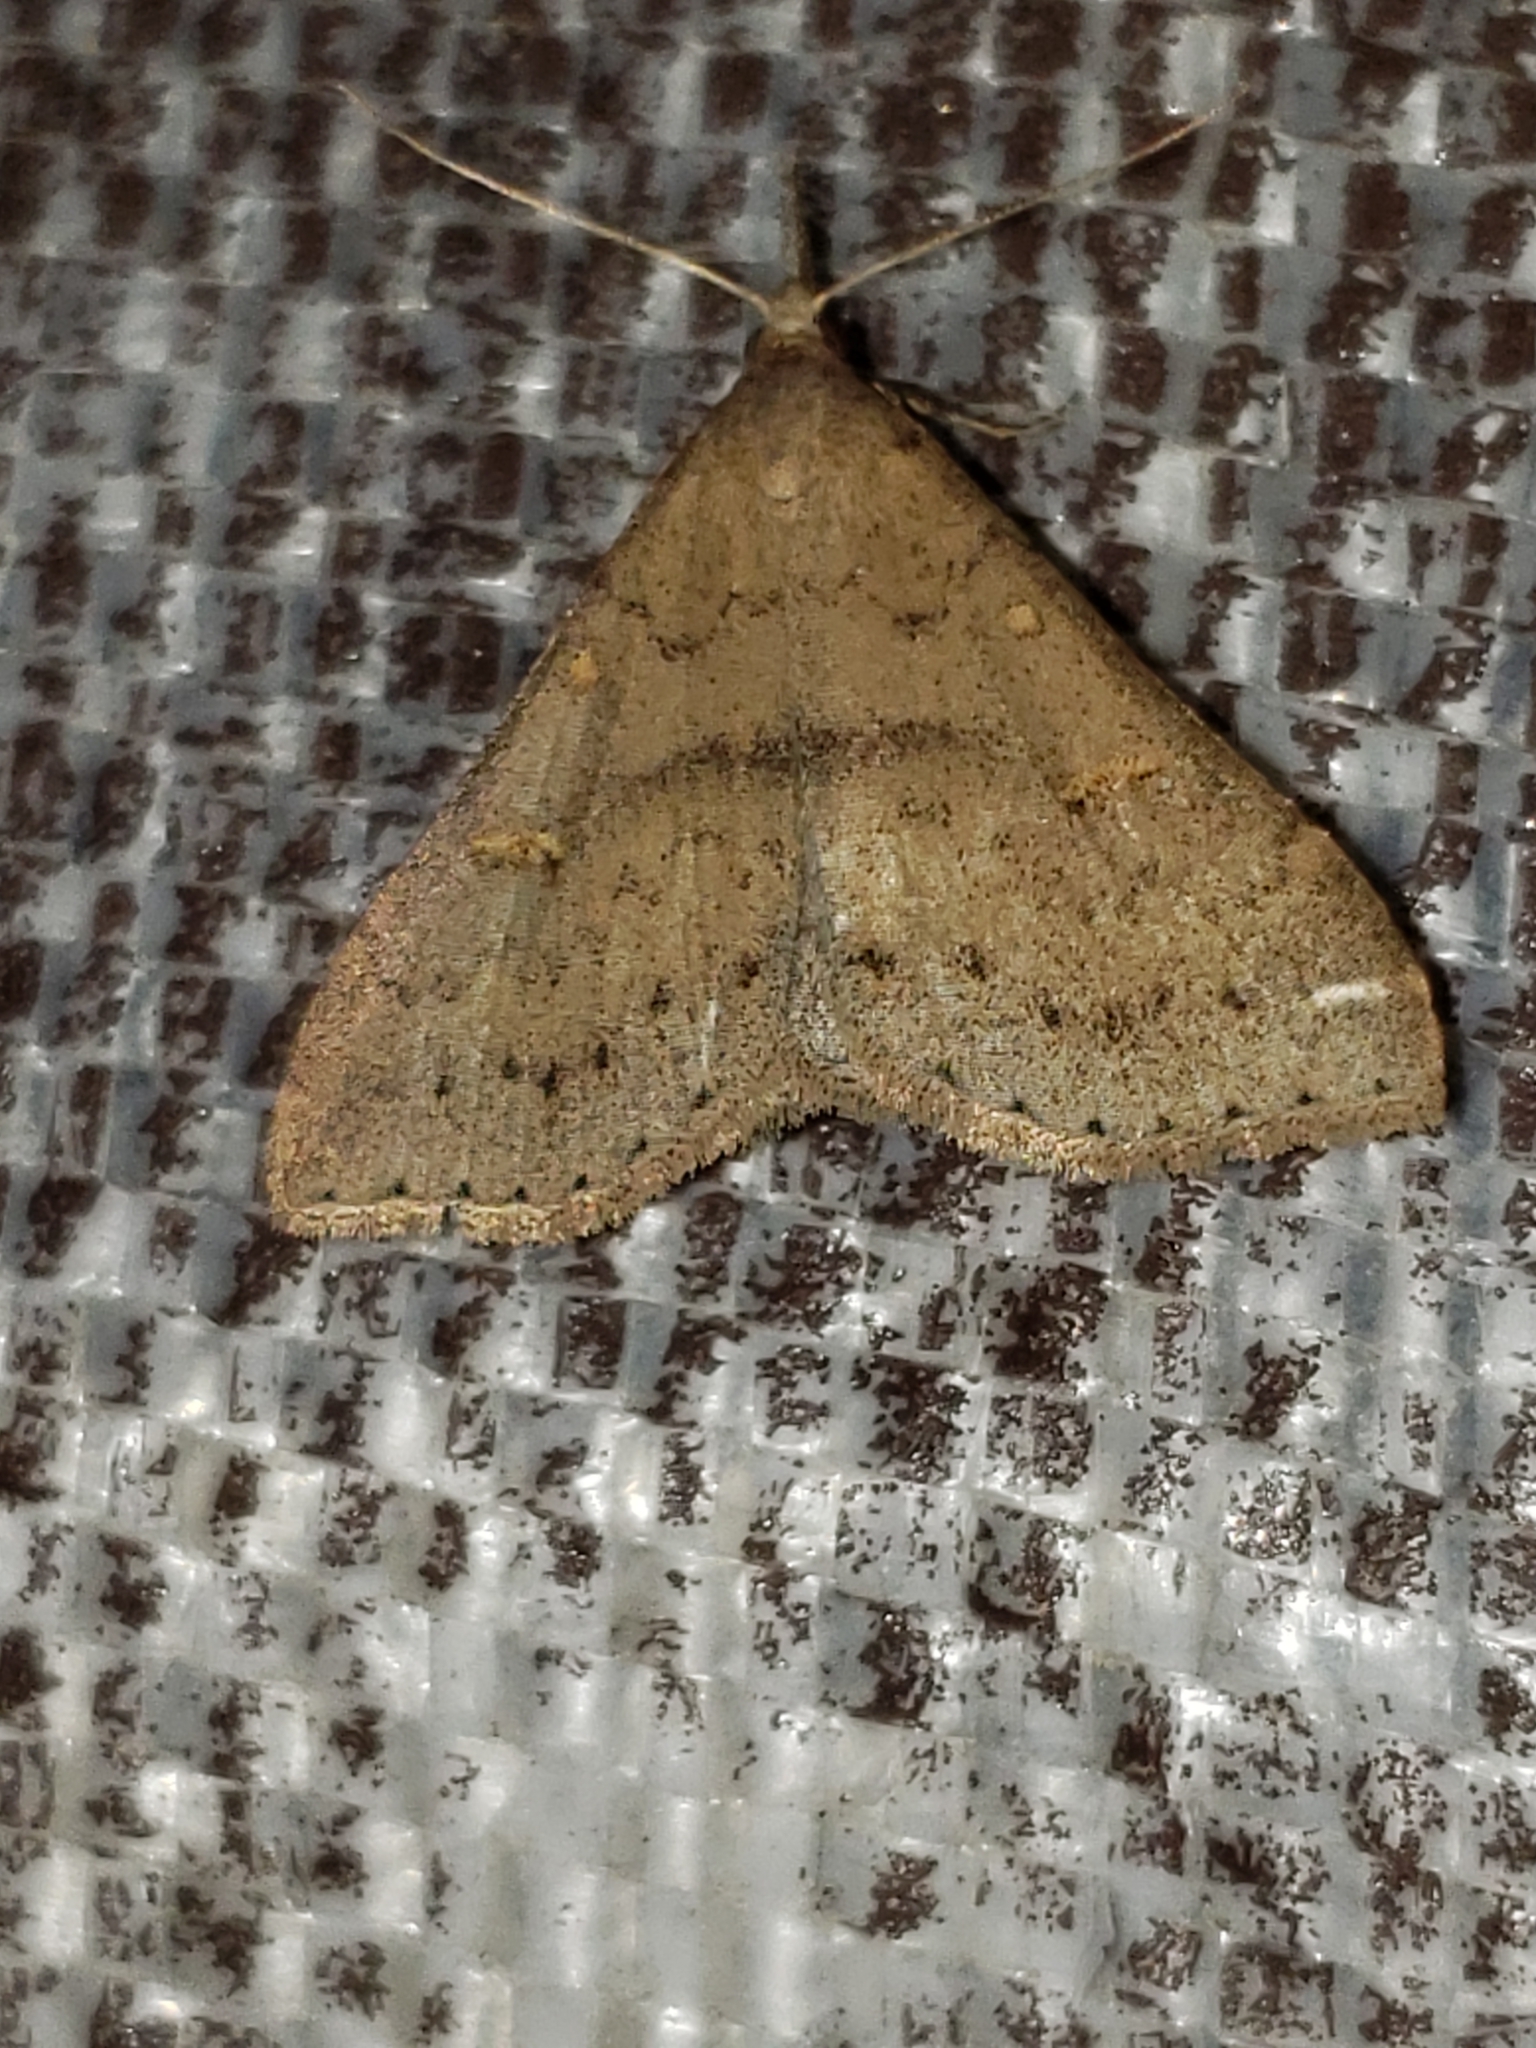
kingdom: Animalia
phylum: Arthropoda
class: Insecta
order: Lepidoptera
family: Erebidae
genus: Renia
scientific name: Renia adspergillus
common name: Speckled renia moth
